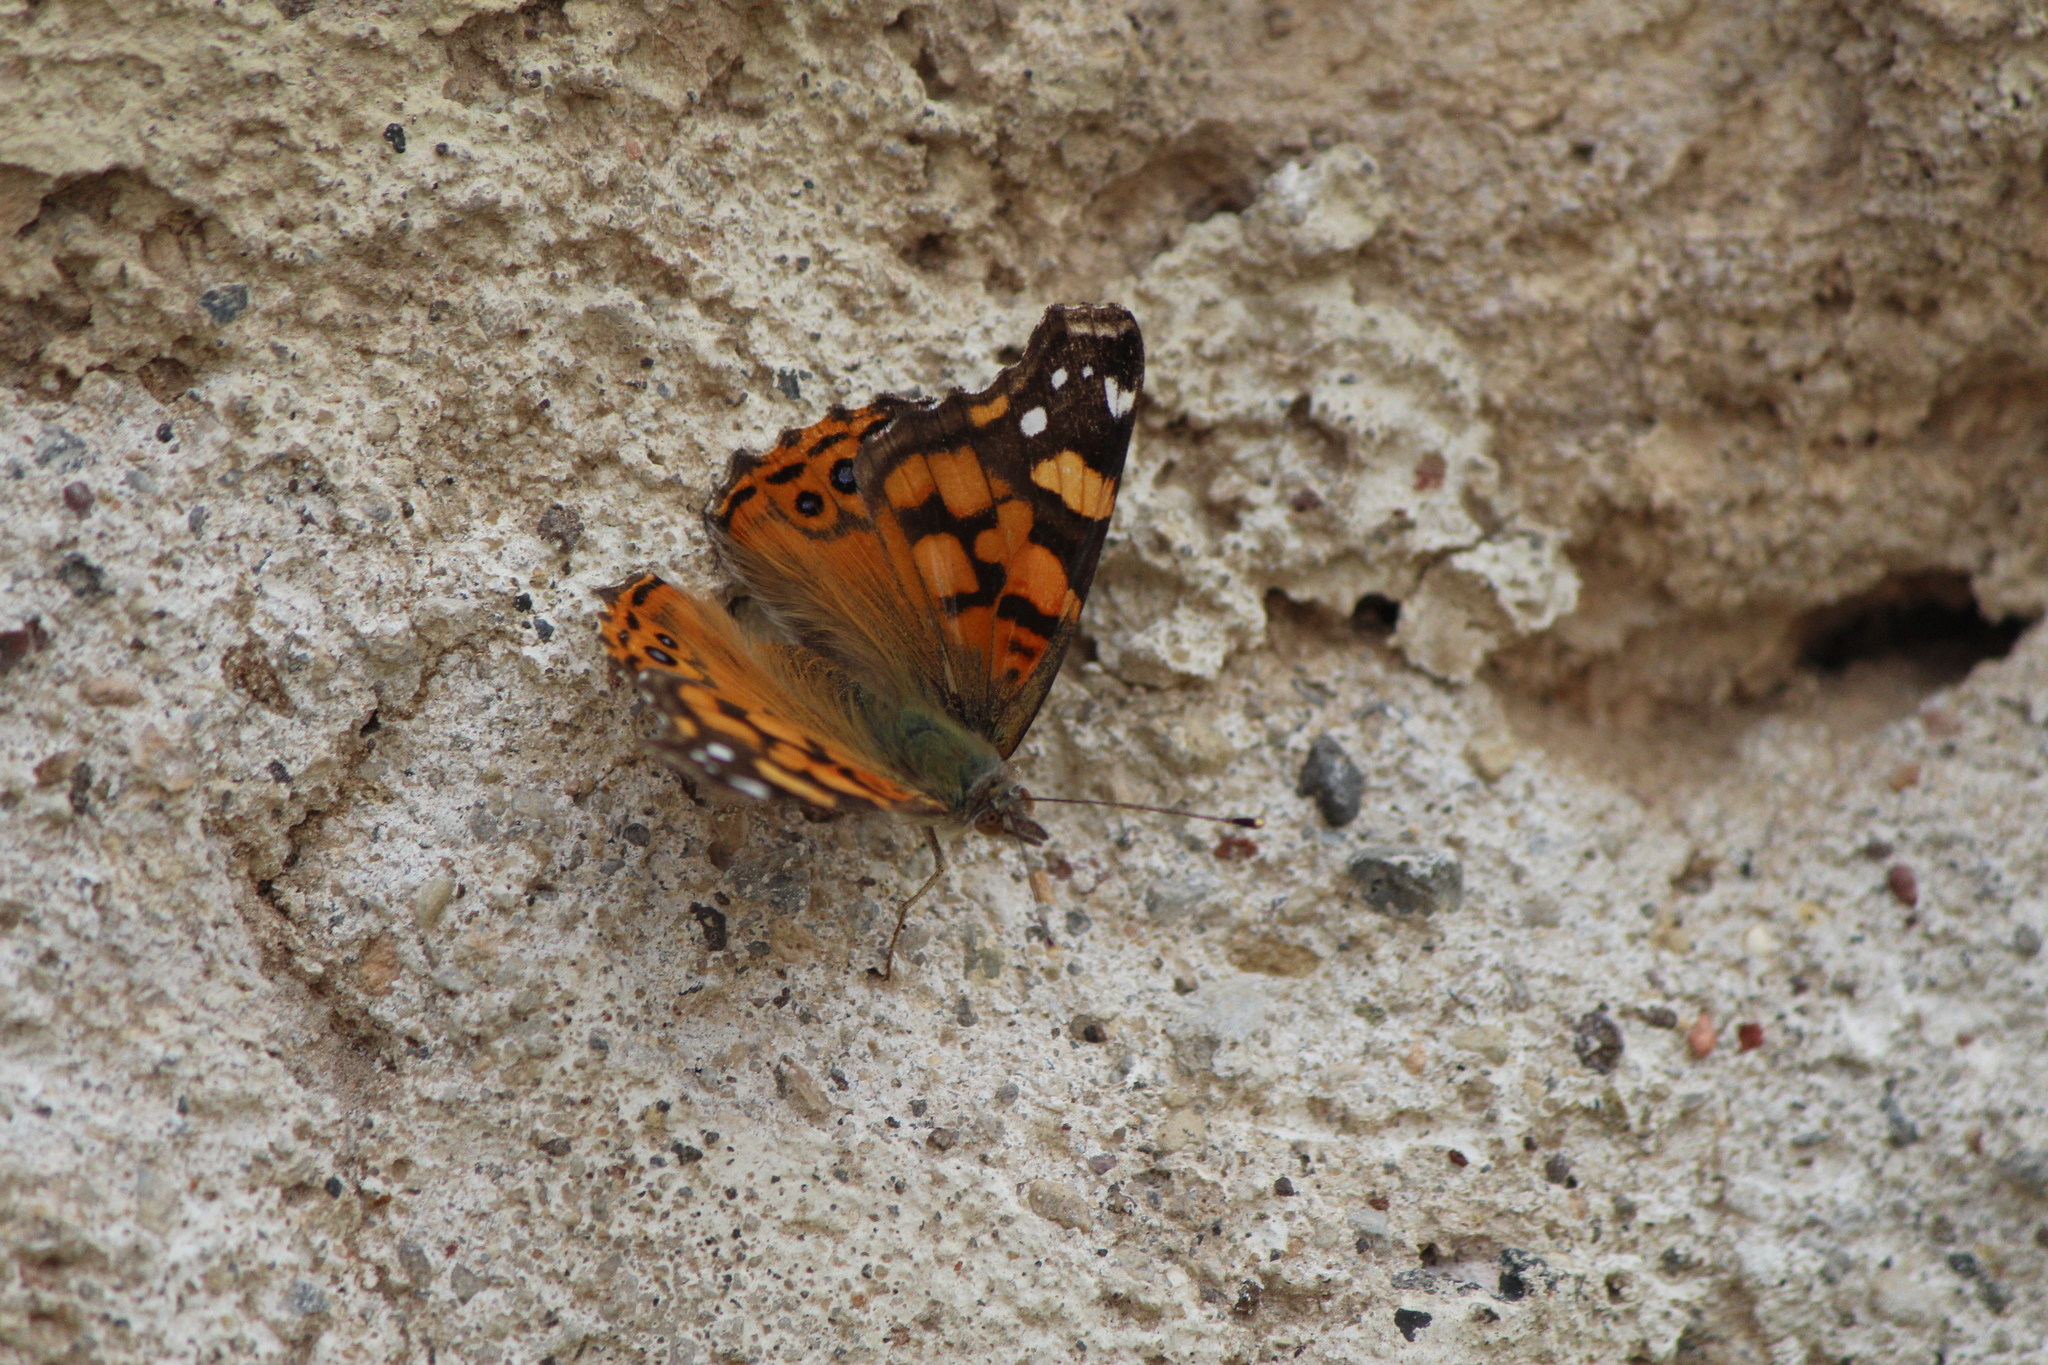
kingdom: Animalia
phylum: Arthropoda
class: Insecta
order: Lepidoptera
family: Nymphalidae
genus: Vanessa
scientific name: Vanessa annabella
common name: West coast lady
